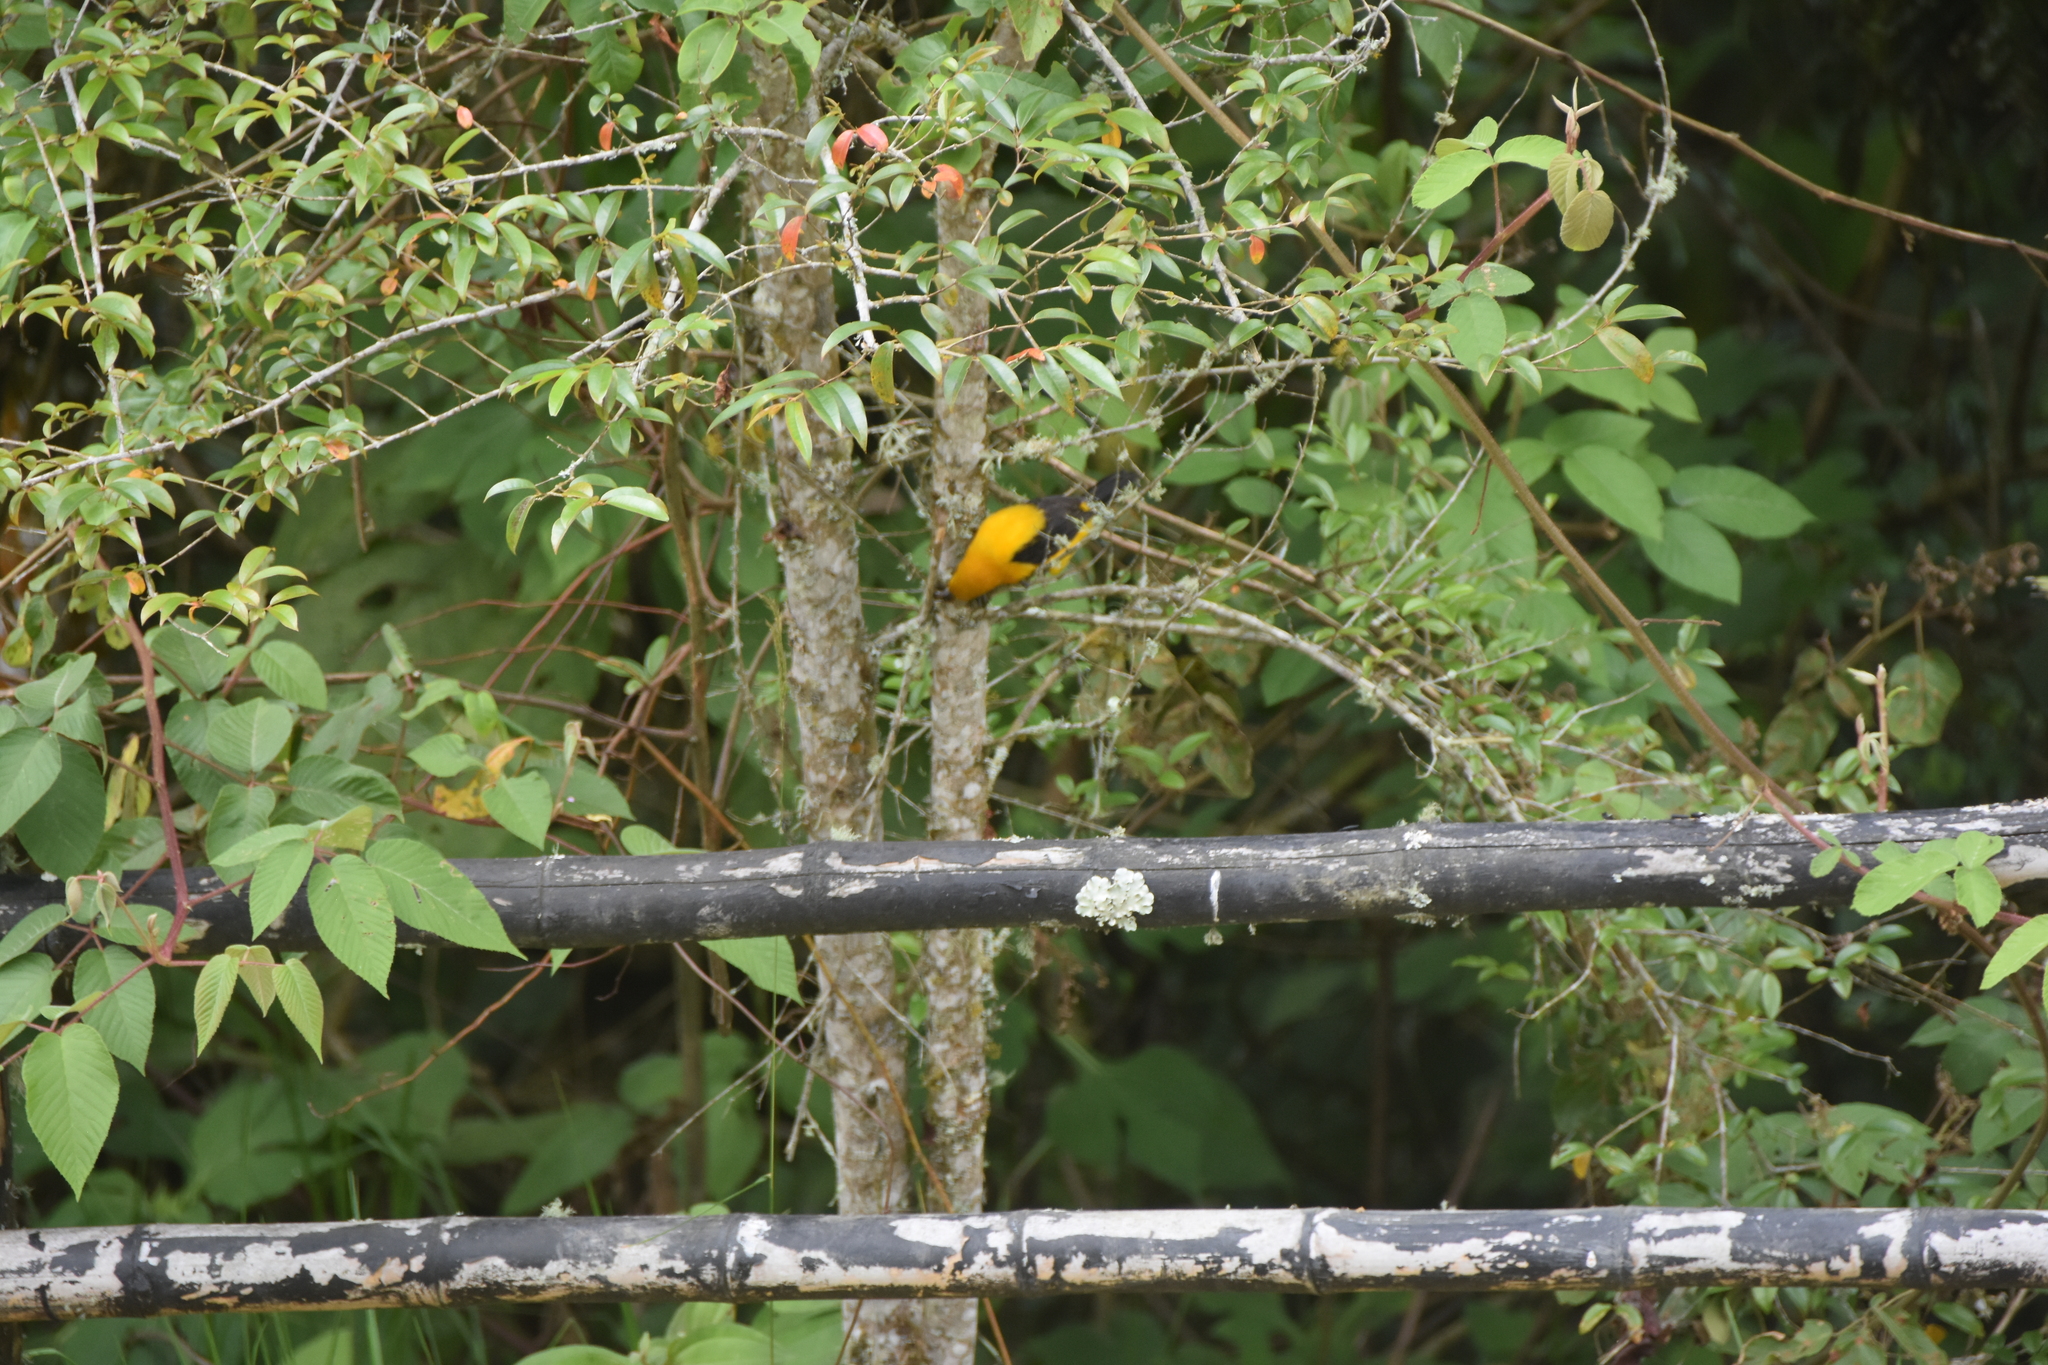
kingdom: Animalia
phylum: Chordata
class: Aves
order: Passeriformes
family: Icteridae
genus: Icterus
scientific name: Icterus chrysater
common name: Yellow-backed oriole
